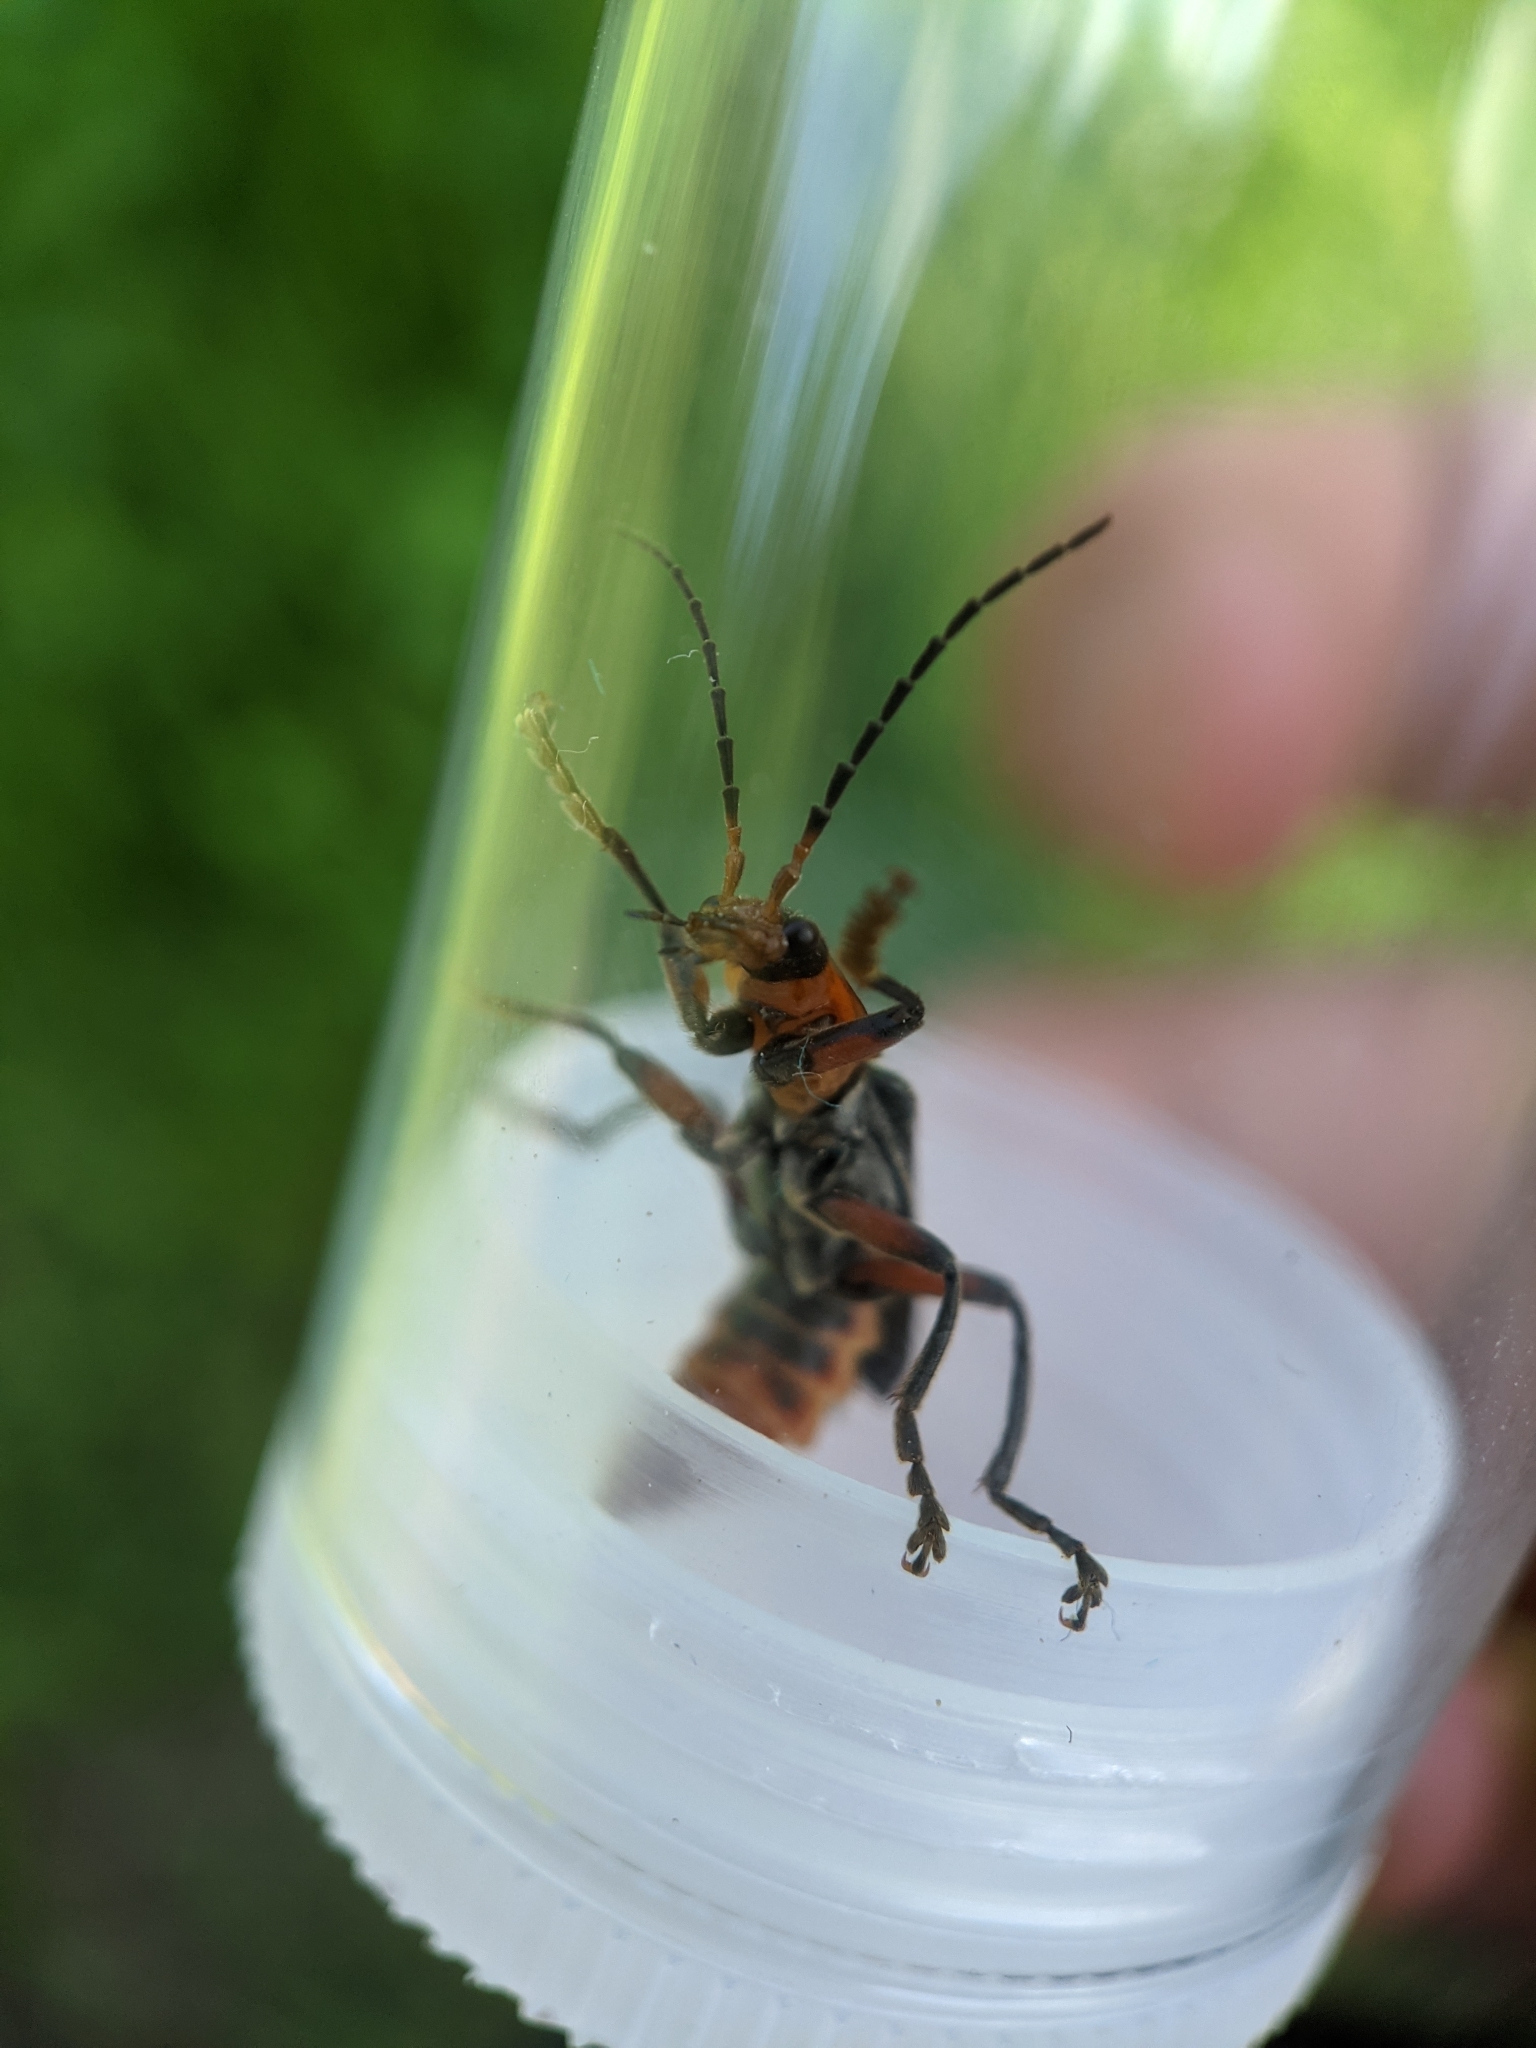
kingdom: Animalia
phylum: Arthropoda
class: Insecta
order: Coleoptera
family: Cantharidae
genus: Cantharis
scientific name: Cantharis rustica
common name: Soldier beetle
